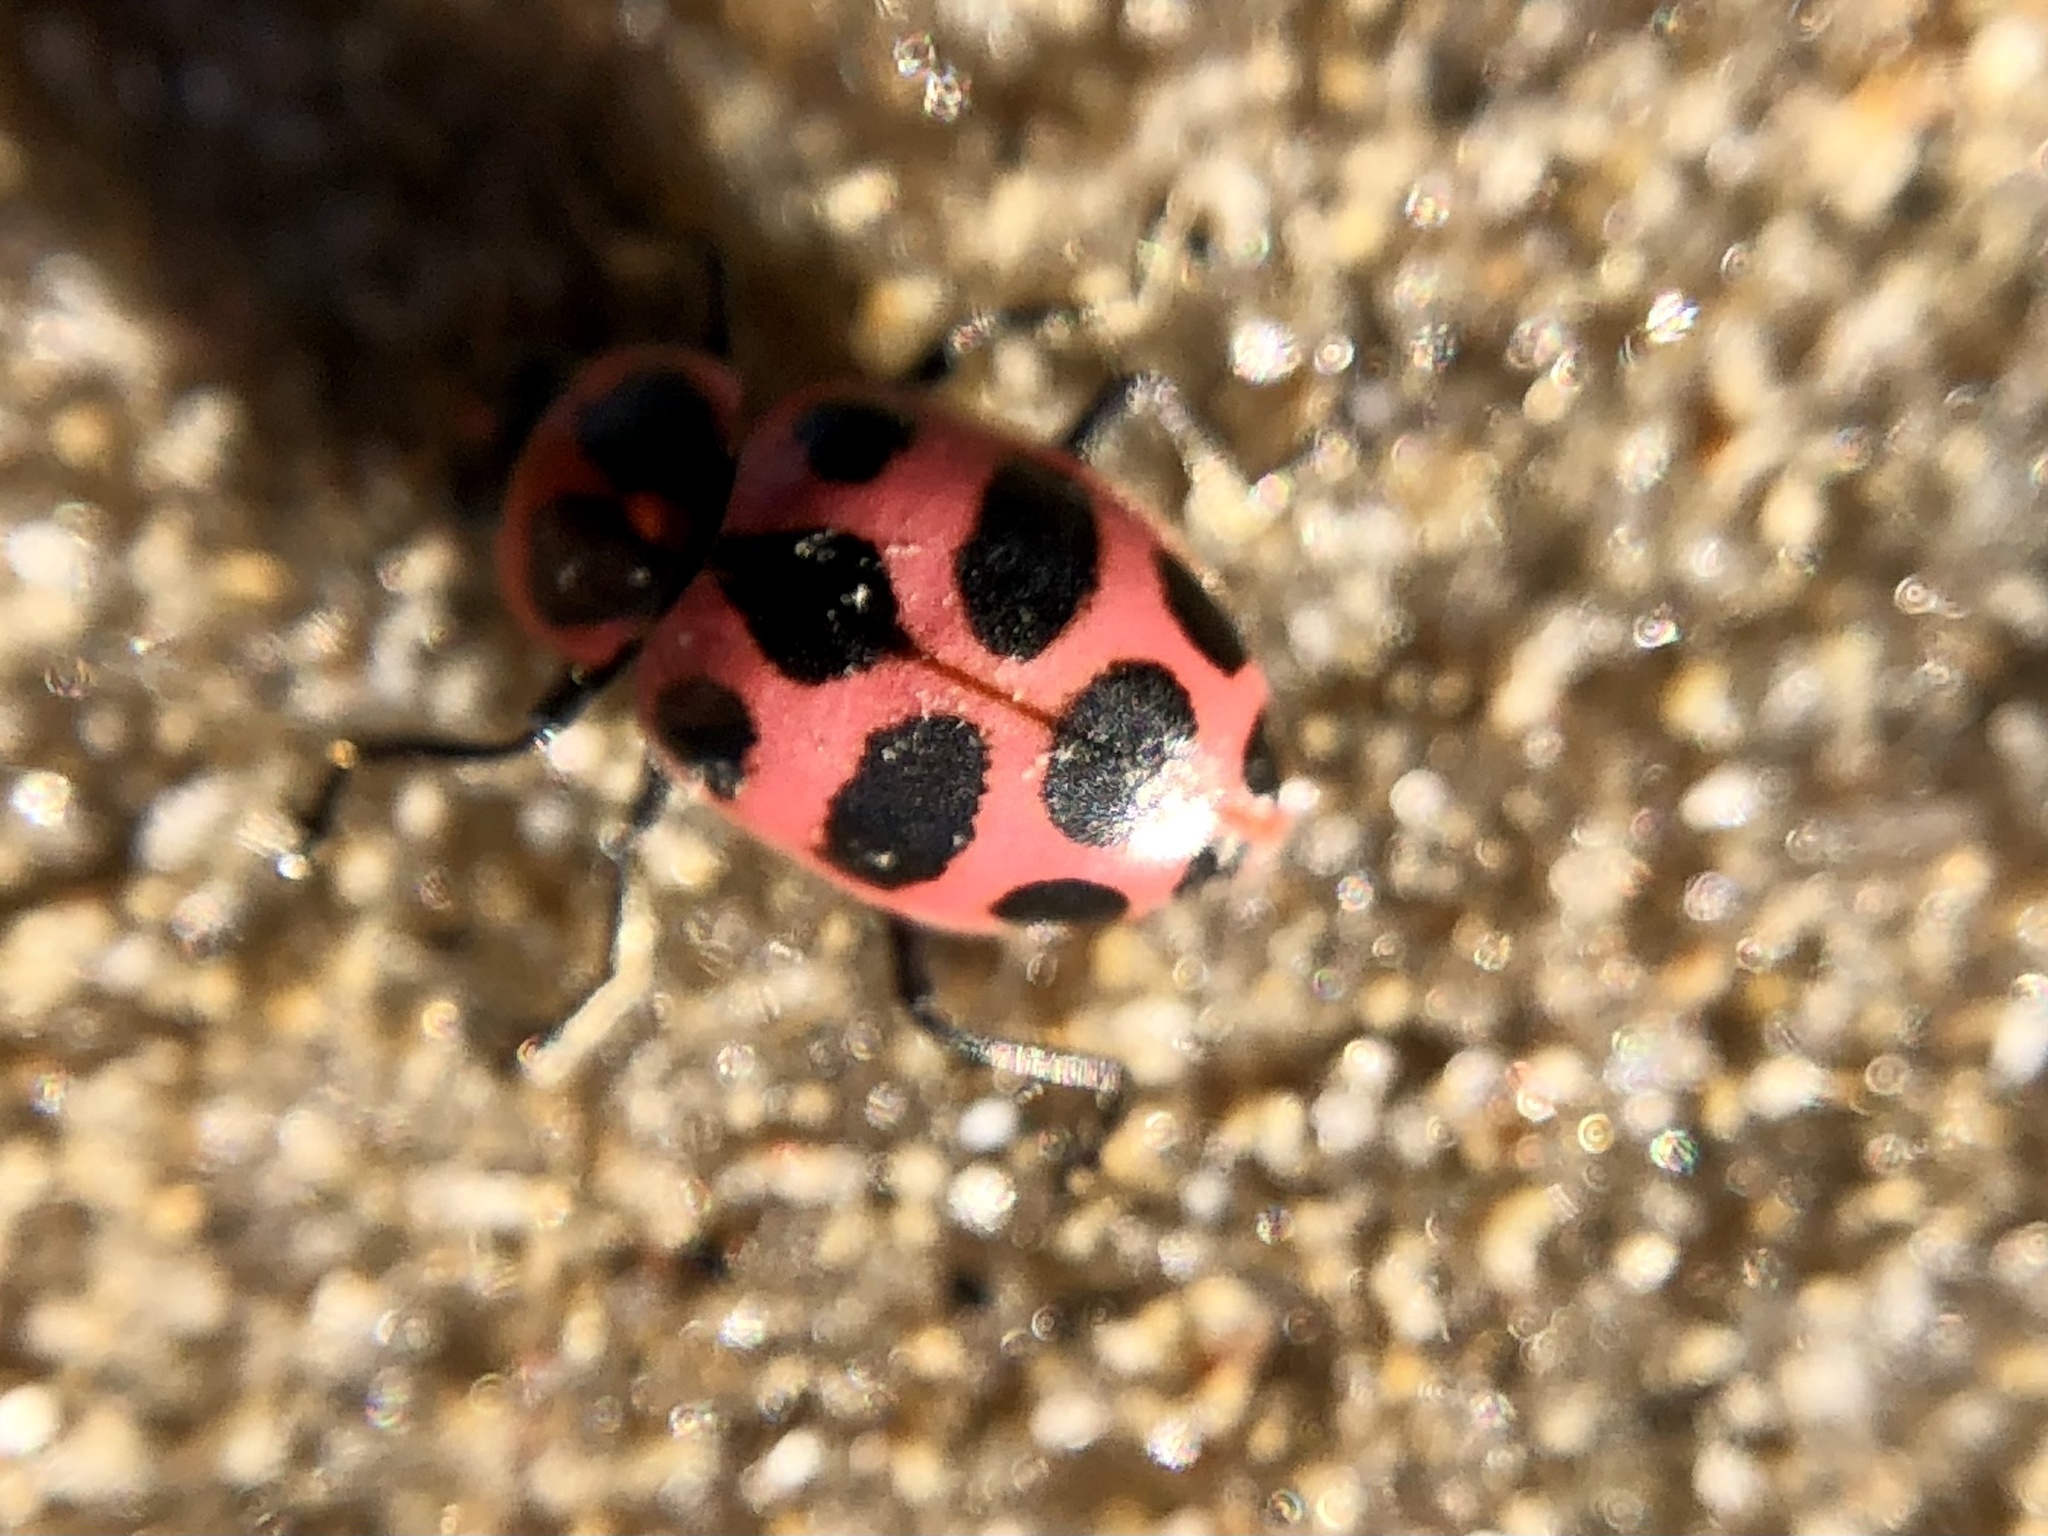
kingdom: Animalia
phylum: Arthropoda
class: Insecta
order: Coleoptera
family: Coccinellidae
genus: Coleomegilla
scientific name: Coleomegilla maculata
